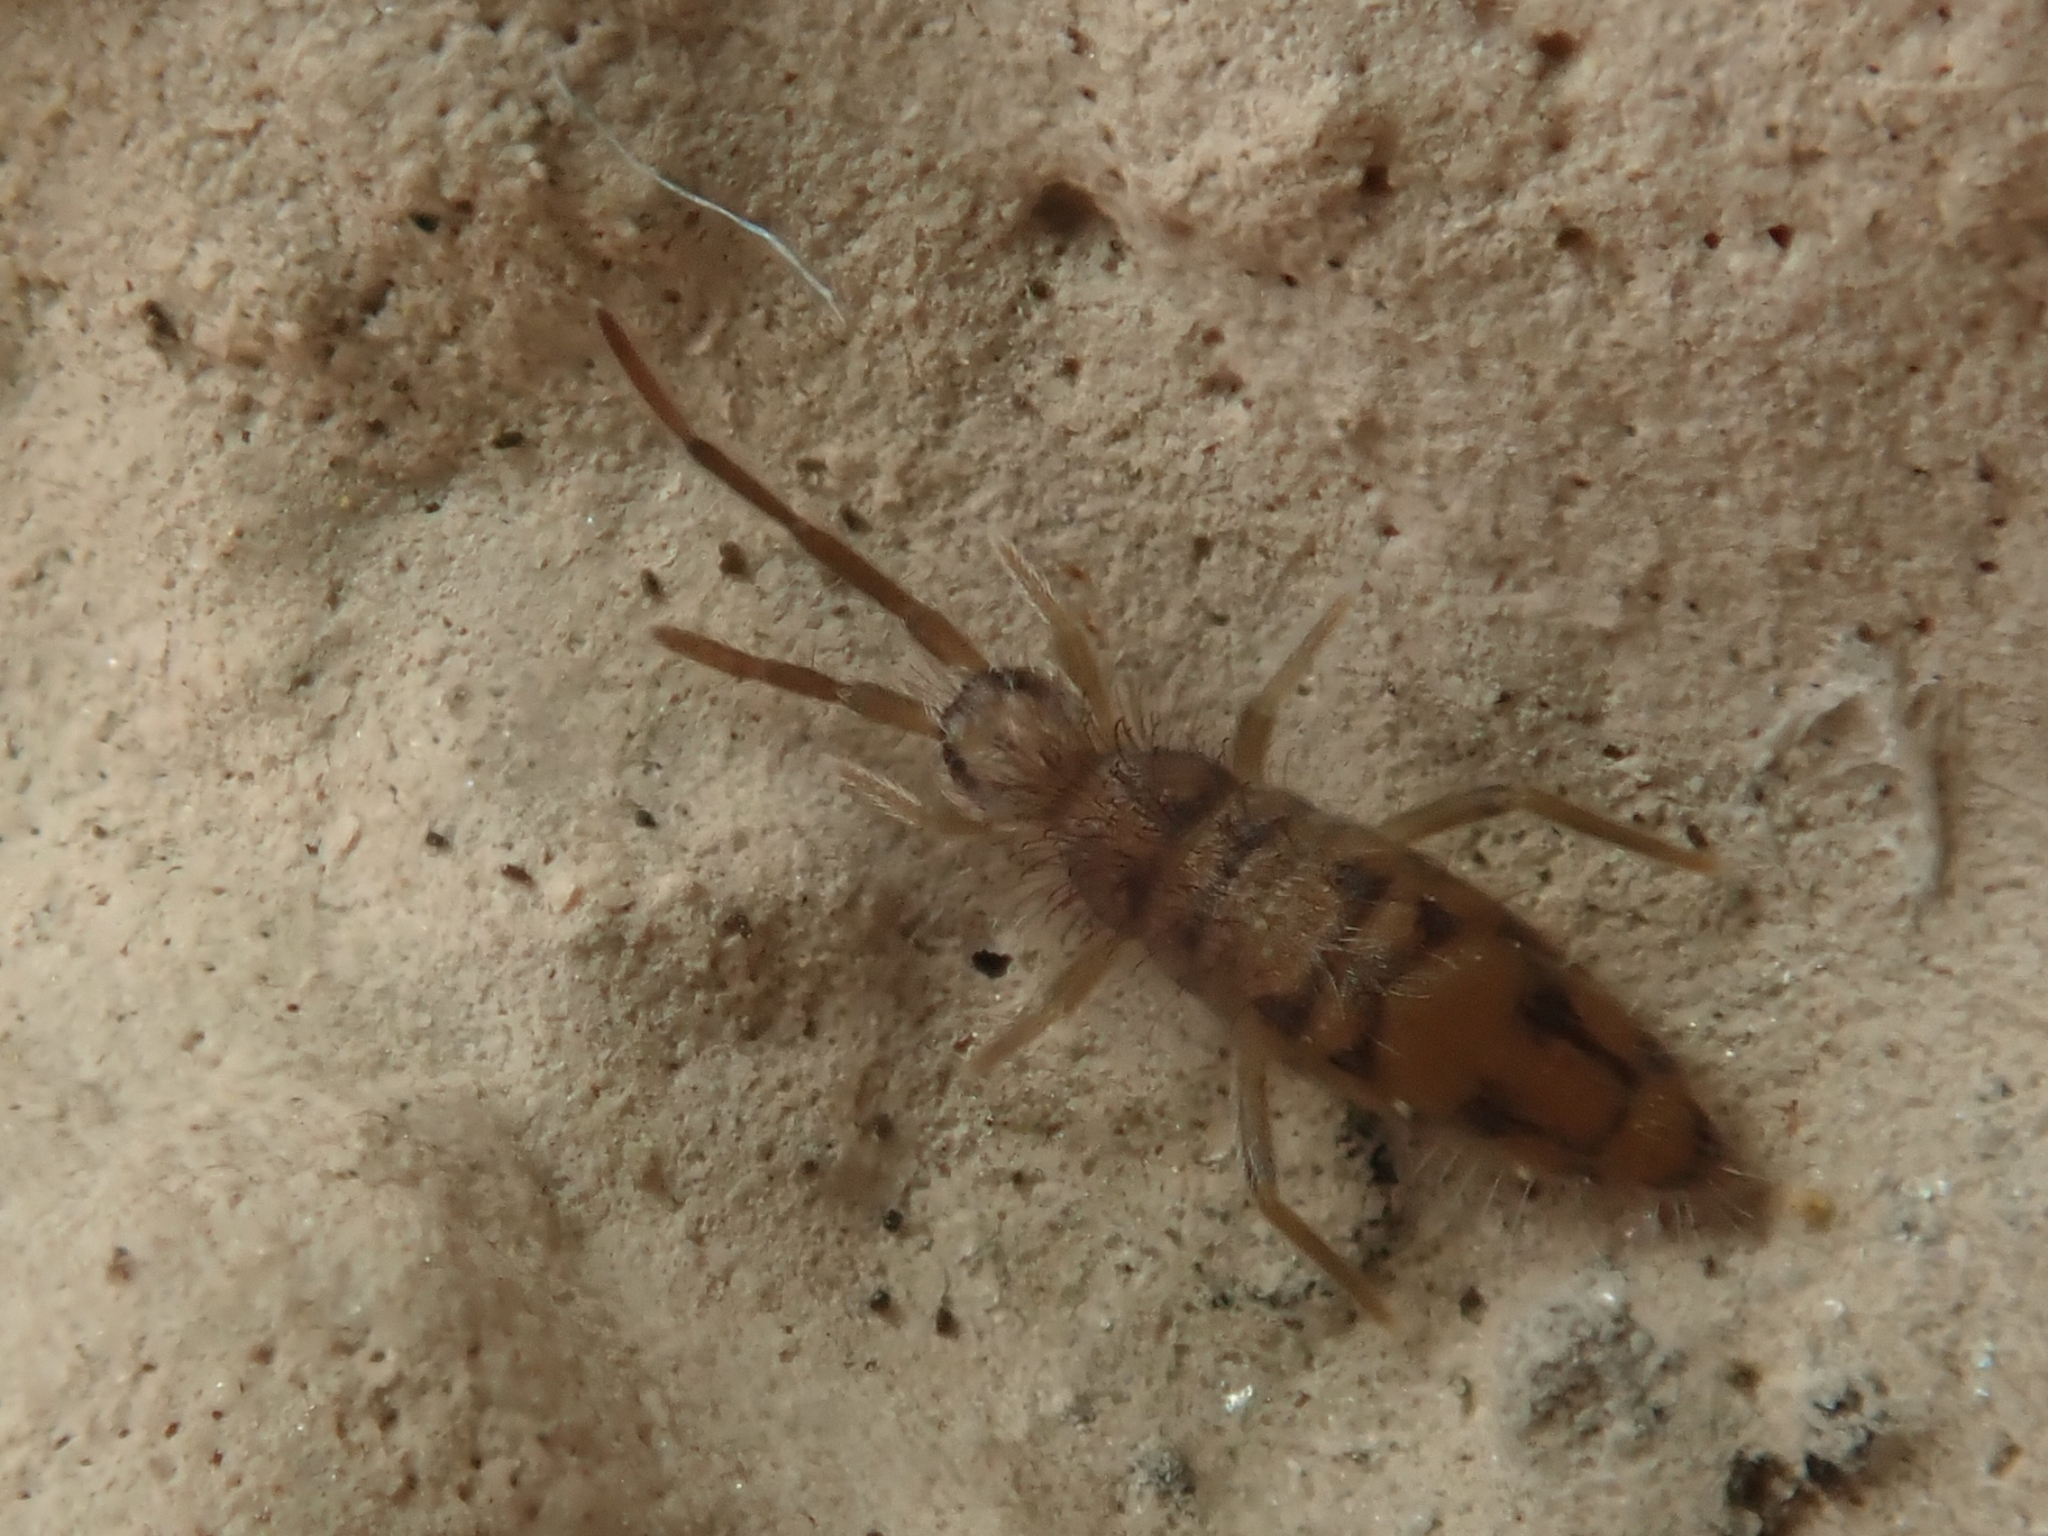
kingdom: Animalia
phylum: Arthropoda
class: Collembola
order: Entomobryomorpha
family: Entomobryidae
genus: Entomobrya
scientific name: Entomobrya nivalis
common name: Cosmopolitan springtail
